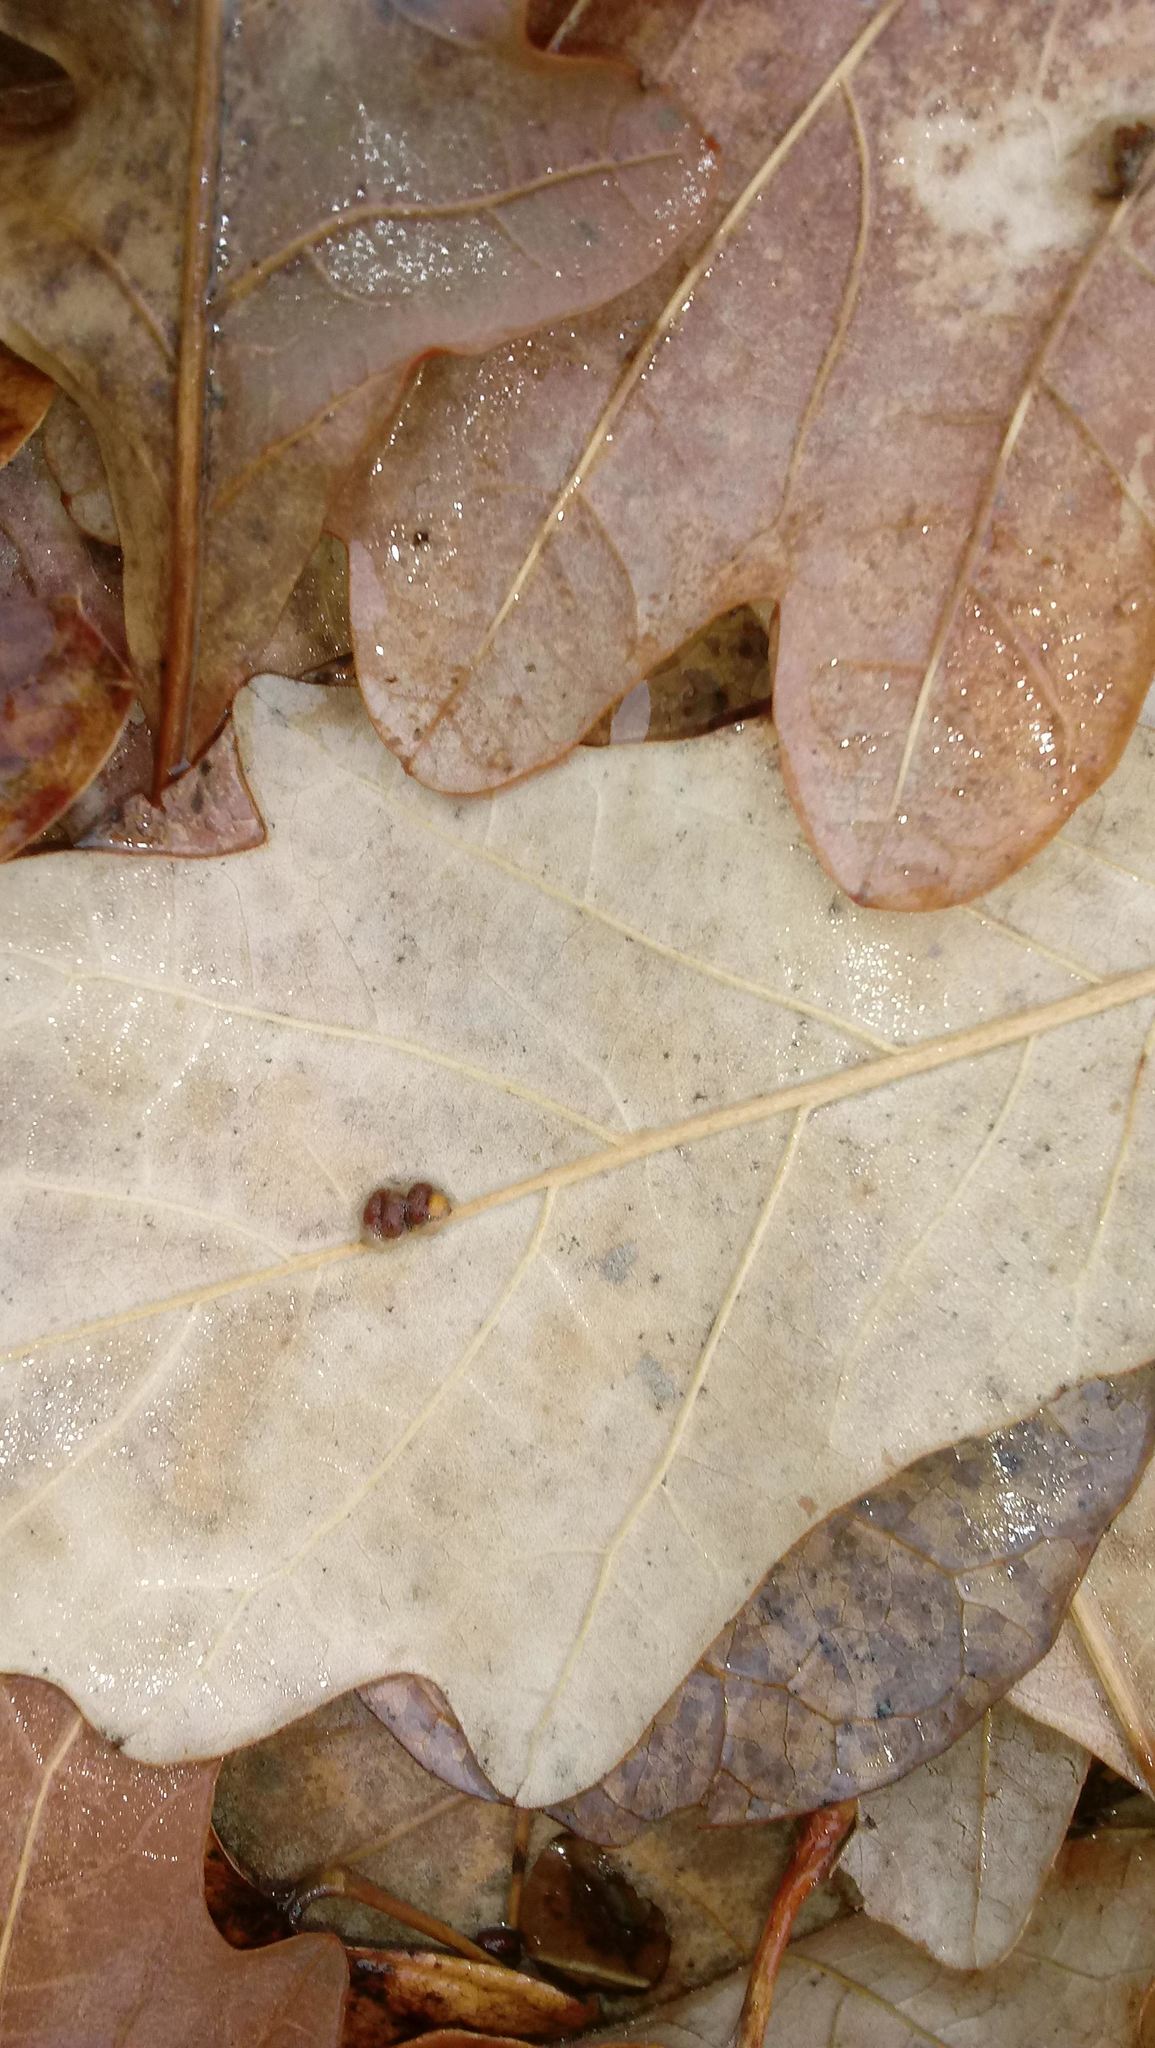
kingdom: Animalia
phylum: Arthropoda
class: Insecta
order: Hymenoptera
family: Cynipidae
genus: Andricus
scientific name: Andricus Druon ignotum
